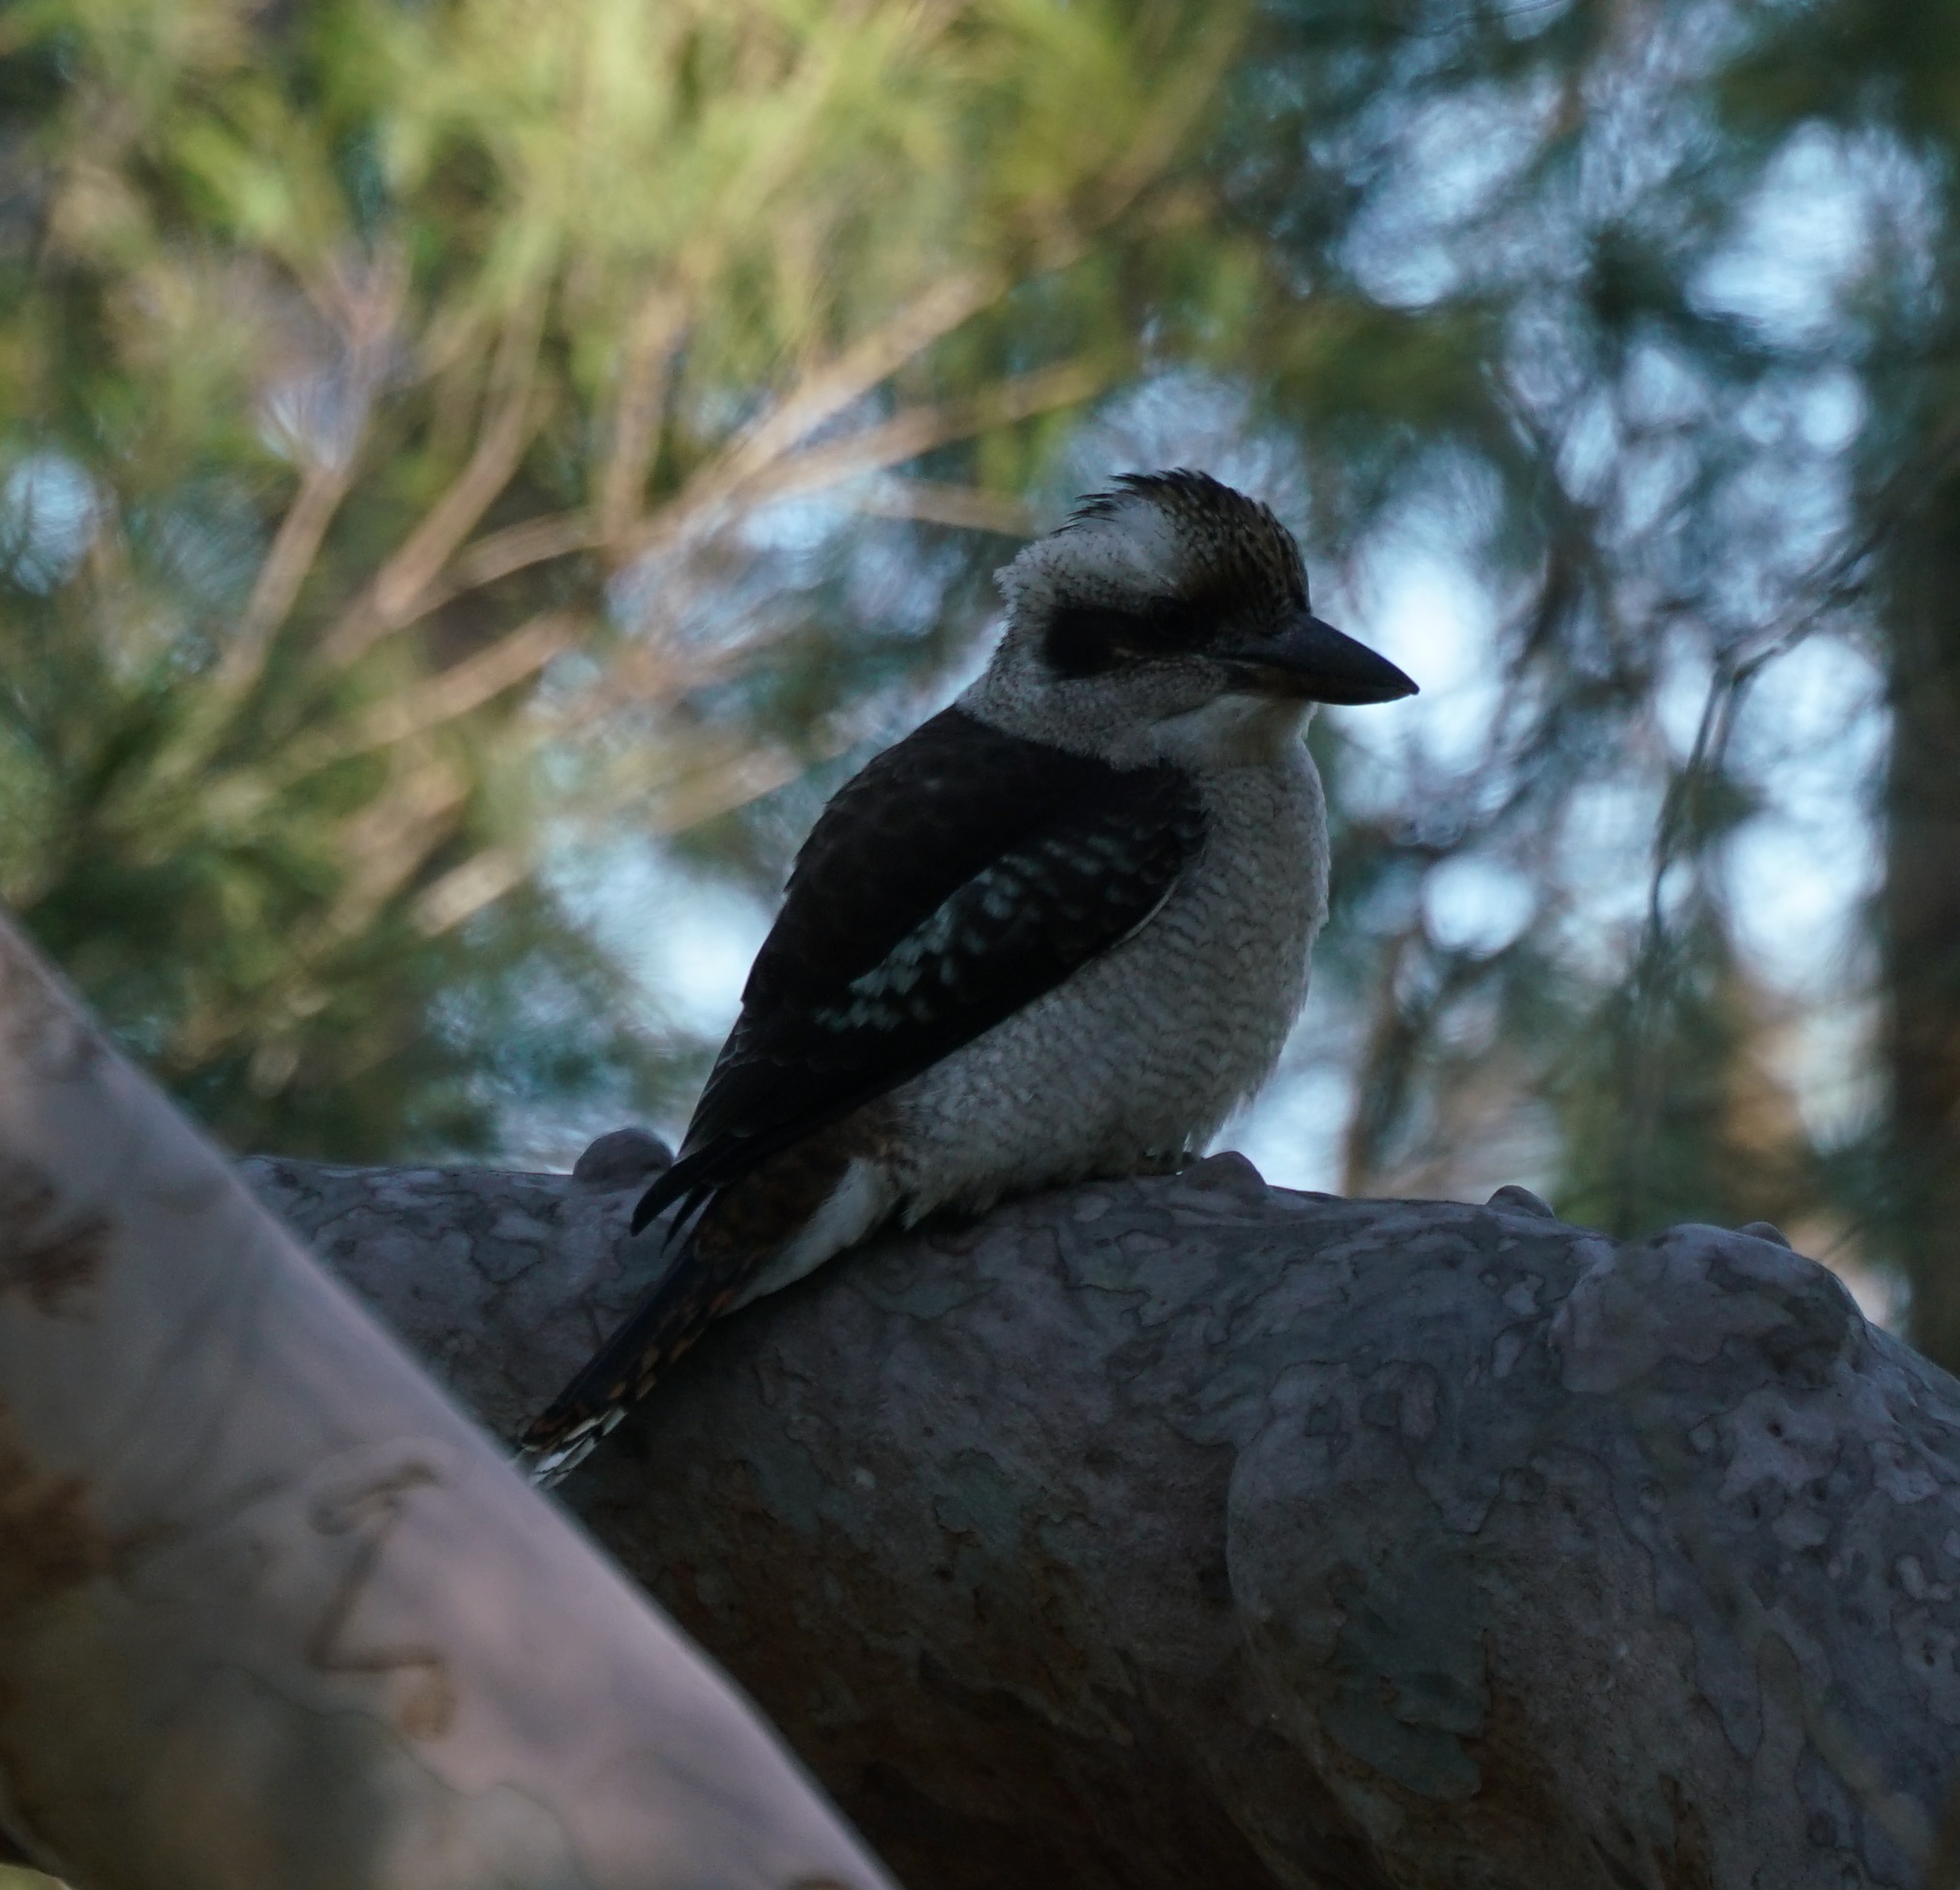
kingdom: Animalia
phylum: Chordata
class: Aves
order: Coraciiformes
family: Alcedinidae
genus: Dacelo
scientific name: Dacelo novaeguineae
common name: Laughing kookaburra
